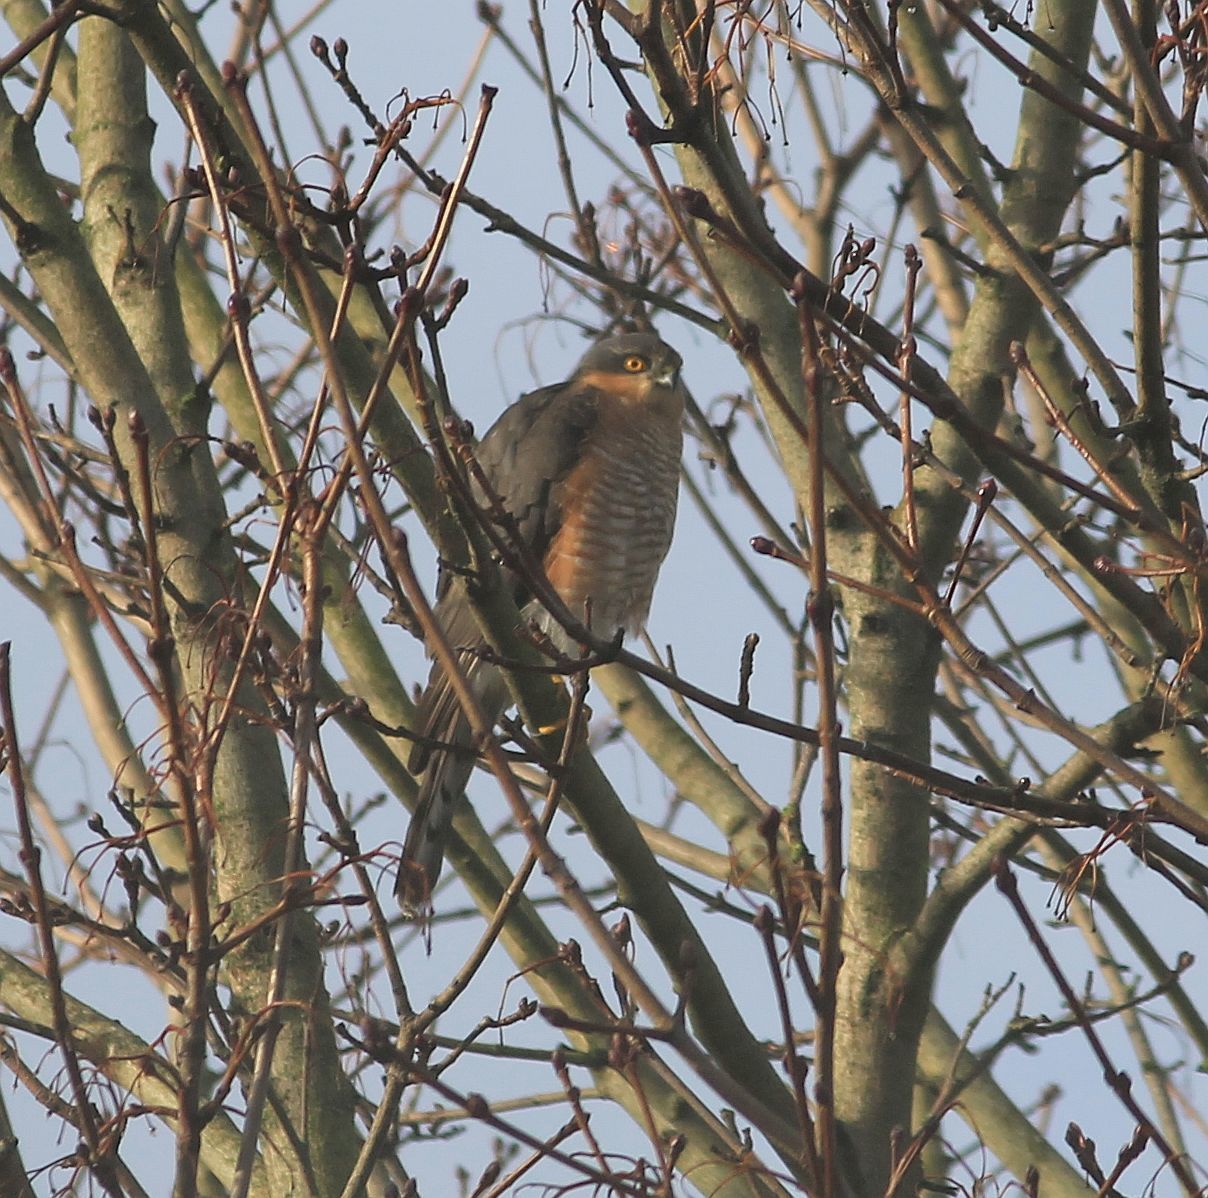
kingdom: Animalia
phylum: Chordata
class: Aves
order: Accipitriformes
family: Accipitridae
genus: Accipiter
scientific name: Accipiter nisus
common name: Eurasian sparrowhawk
